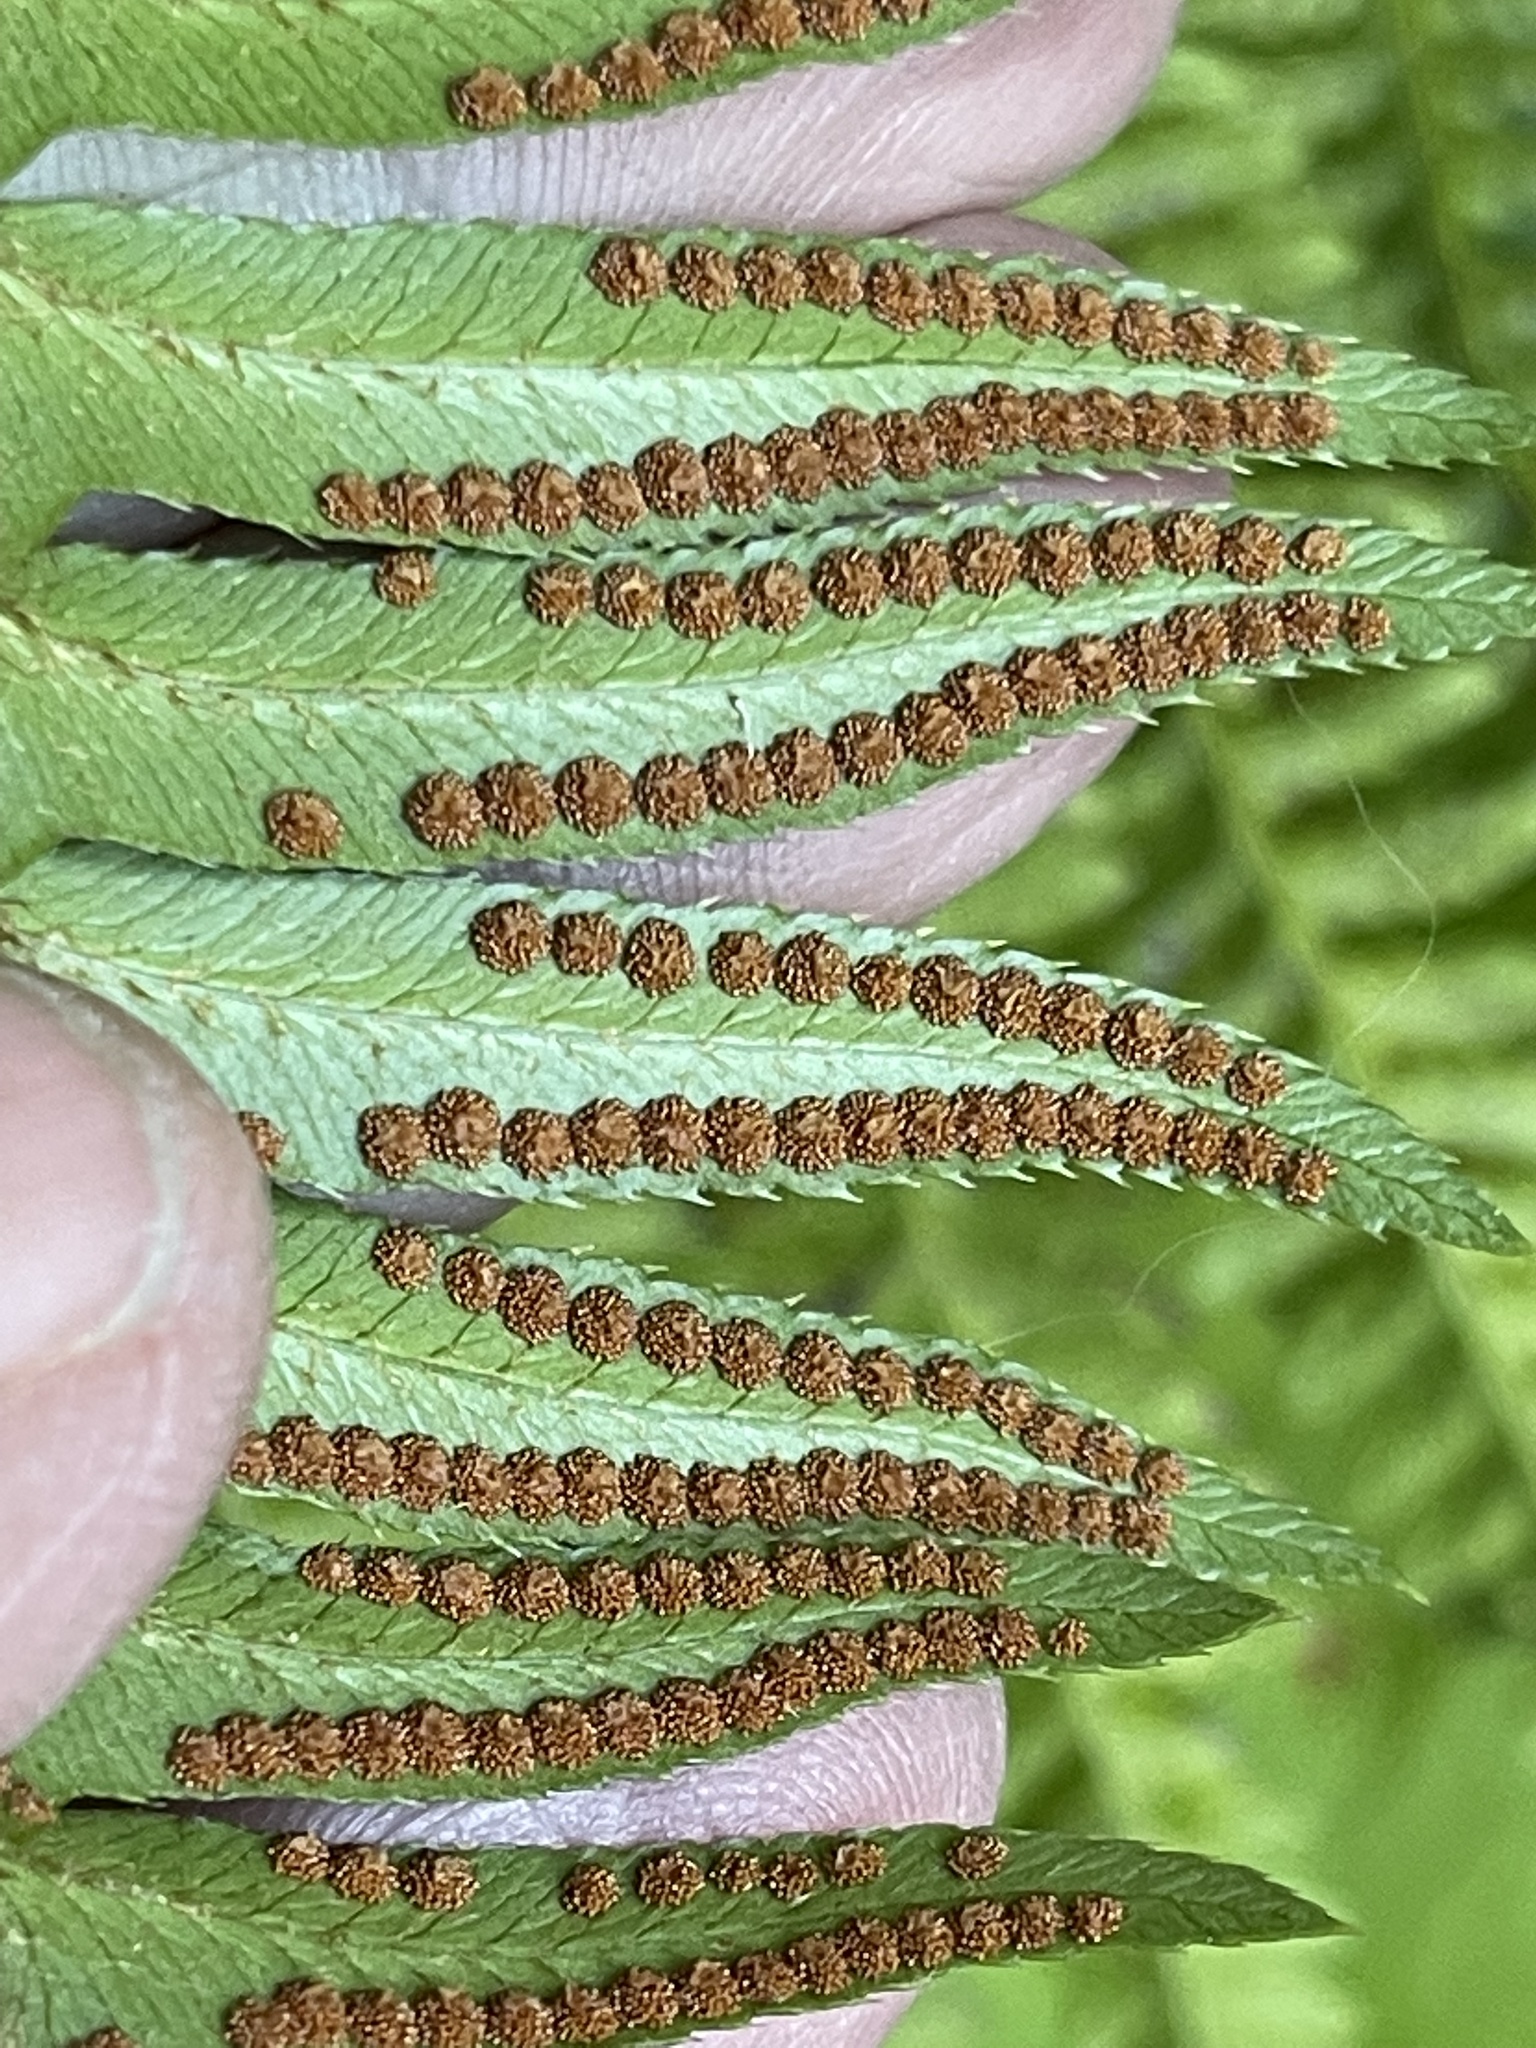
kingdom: Plantae
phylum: Tracheophyta
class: Polypodiopsida
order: Polypodiales
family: Dryopteridaceae
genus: Polystichum
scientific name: Polystichum munitum
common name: Western sword-fern
